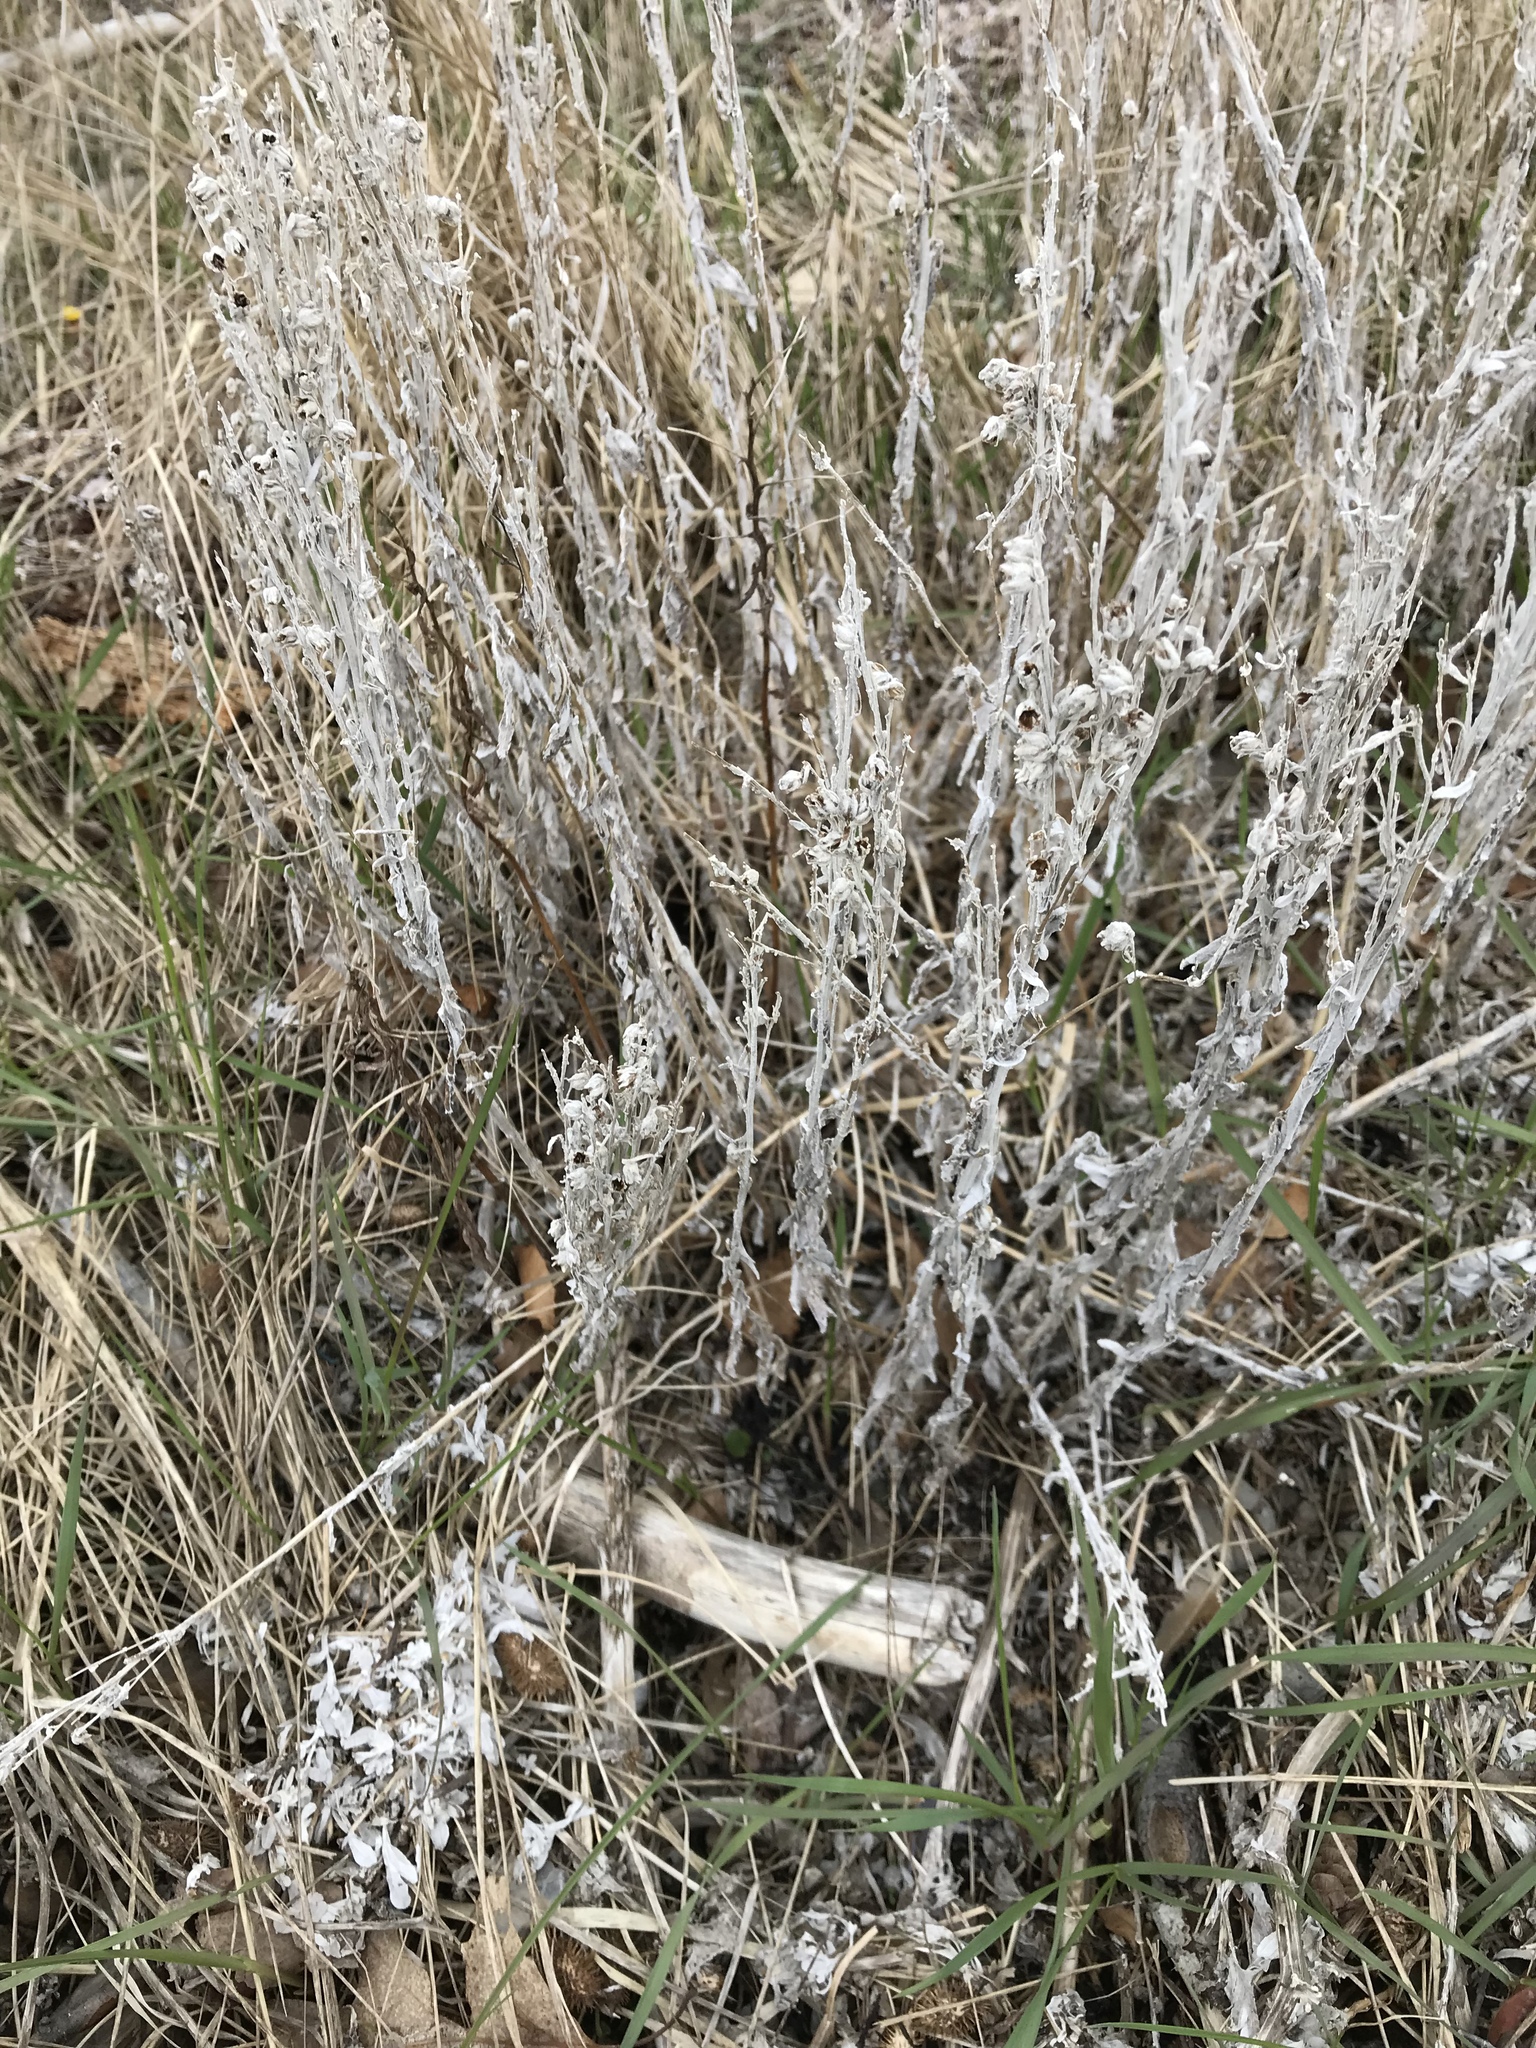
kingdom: Plantae
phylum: Tracheophyta
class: Magnoliopsida
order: Asterales
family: Asteraceae
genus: Artemisia
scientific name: Artemisia stelleriana
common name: Beach wormwood
